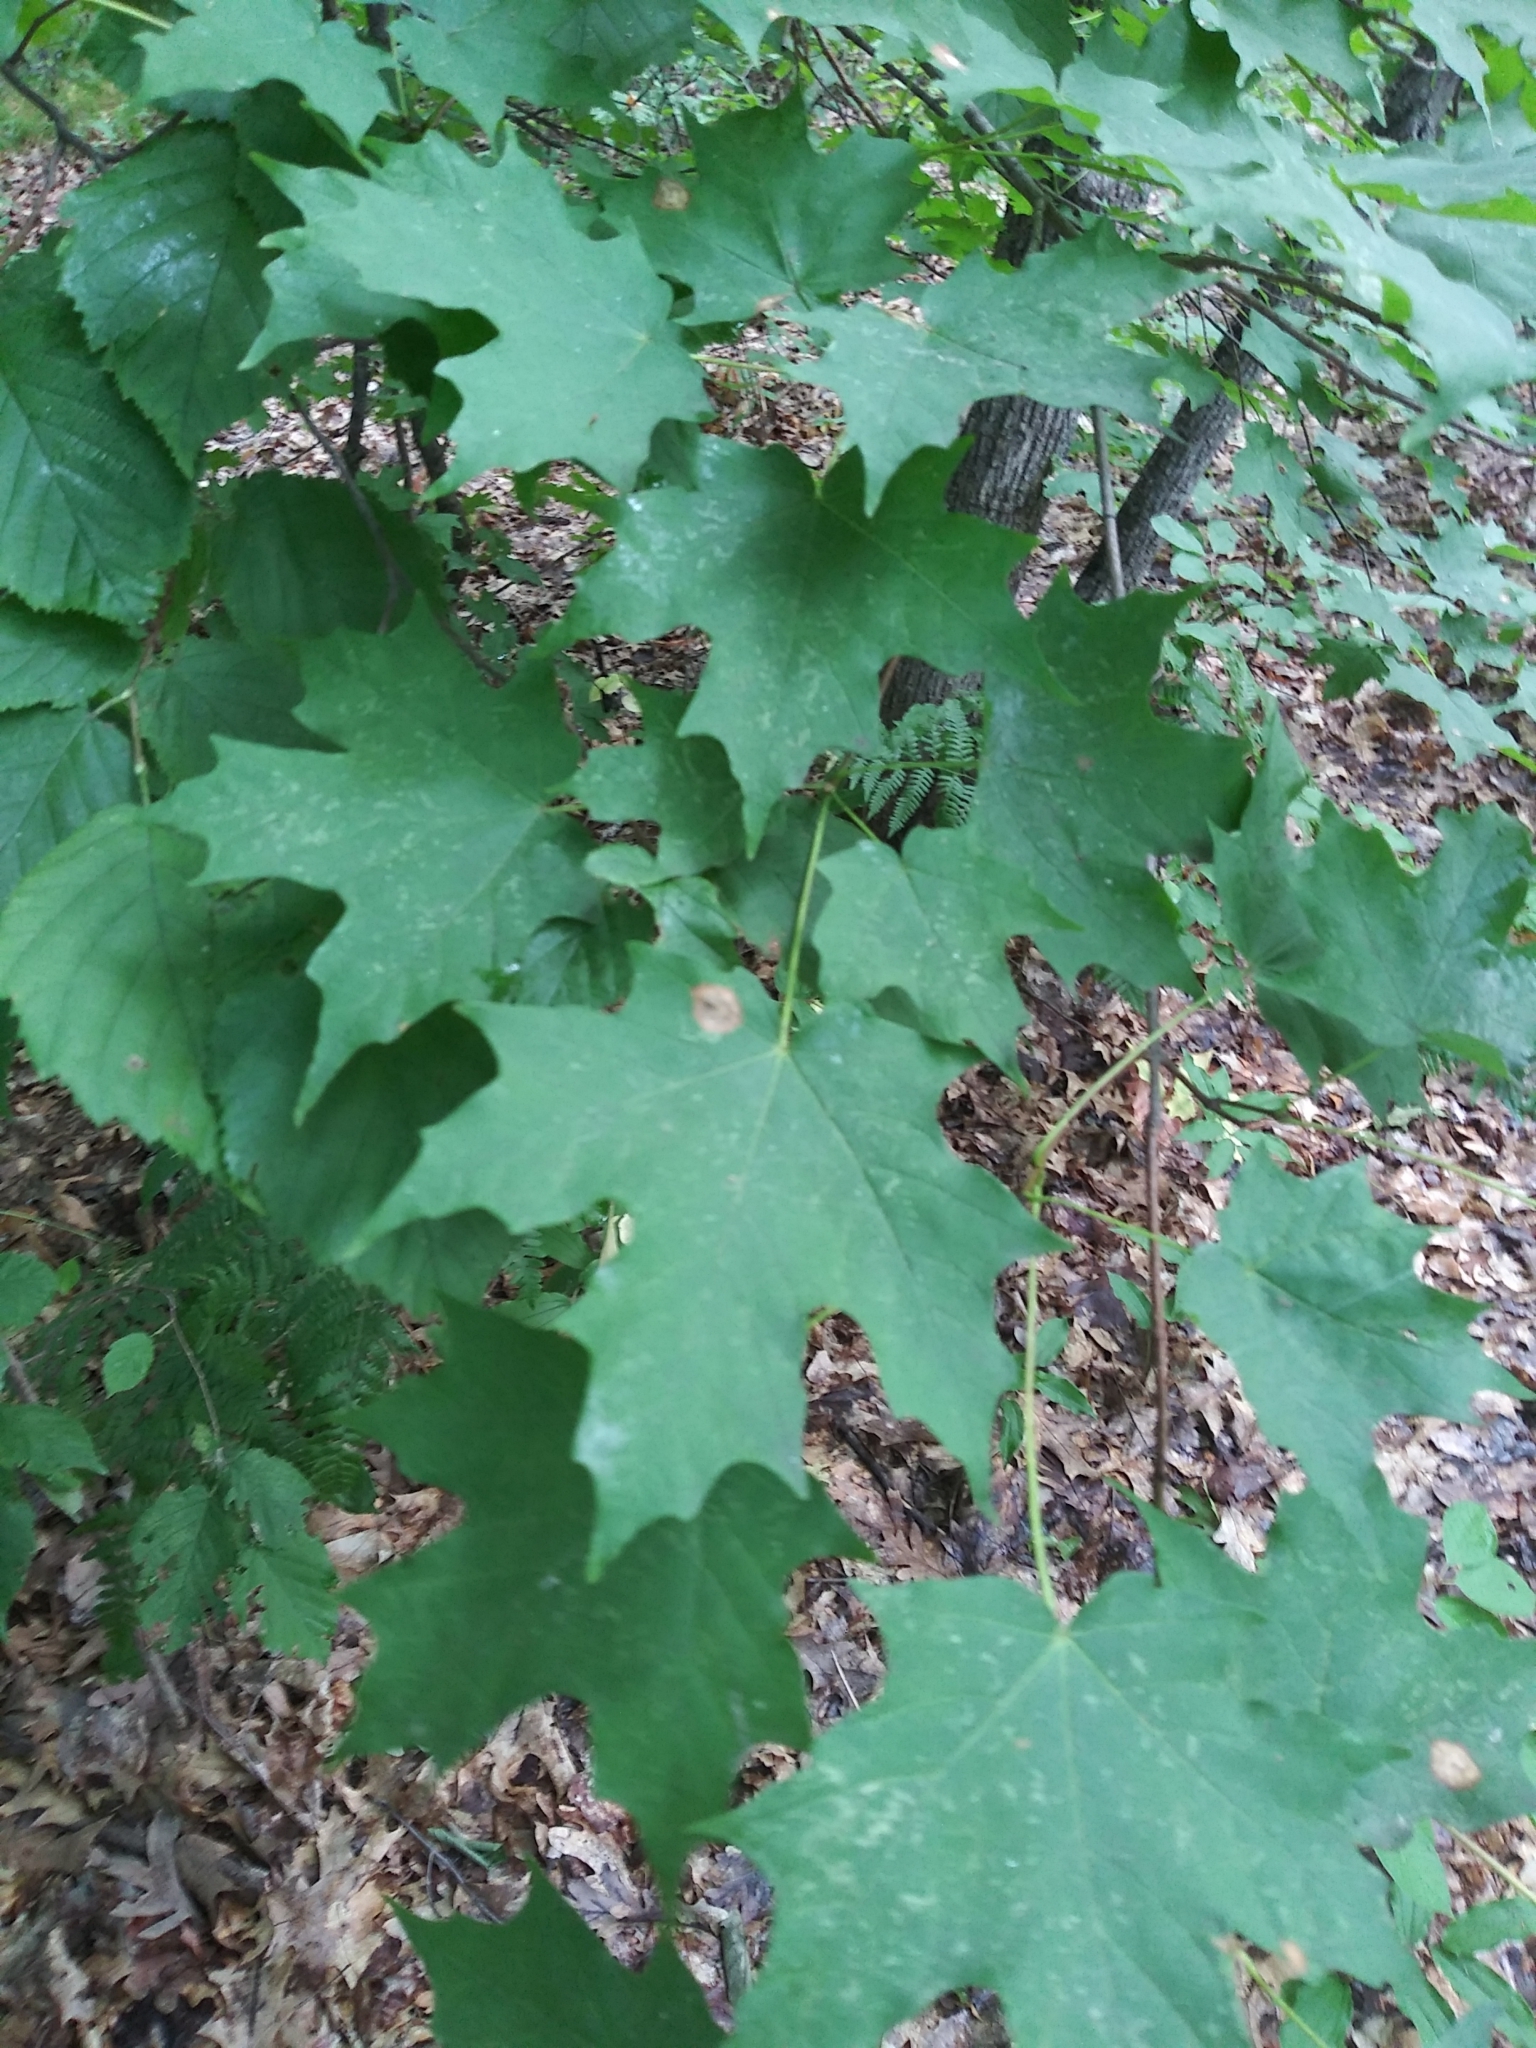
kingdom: Plantae
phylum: Tracheophyta
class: Magnoliopsida
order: Sapindales
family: Sapindaceae
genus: Acer
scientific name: Acer saccharum
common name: Sugar maple
